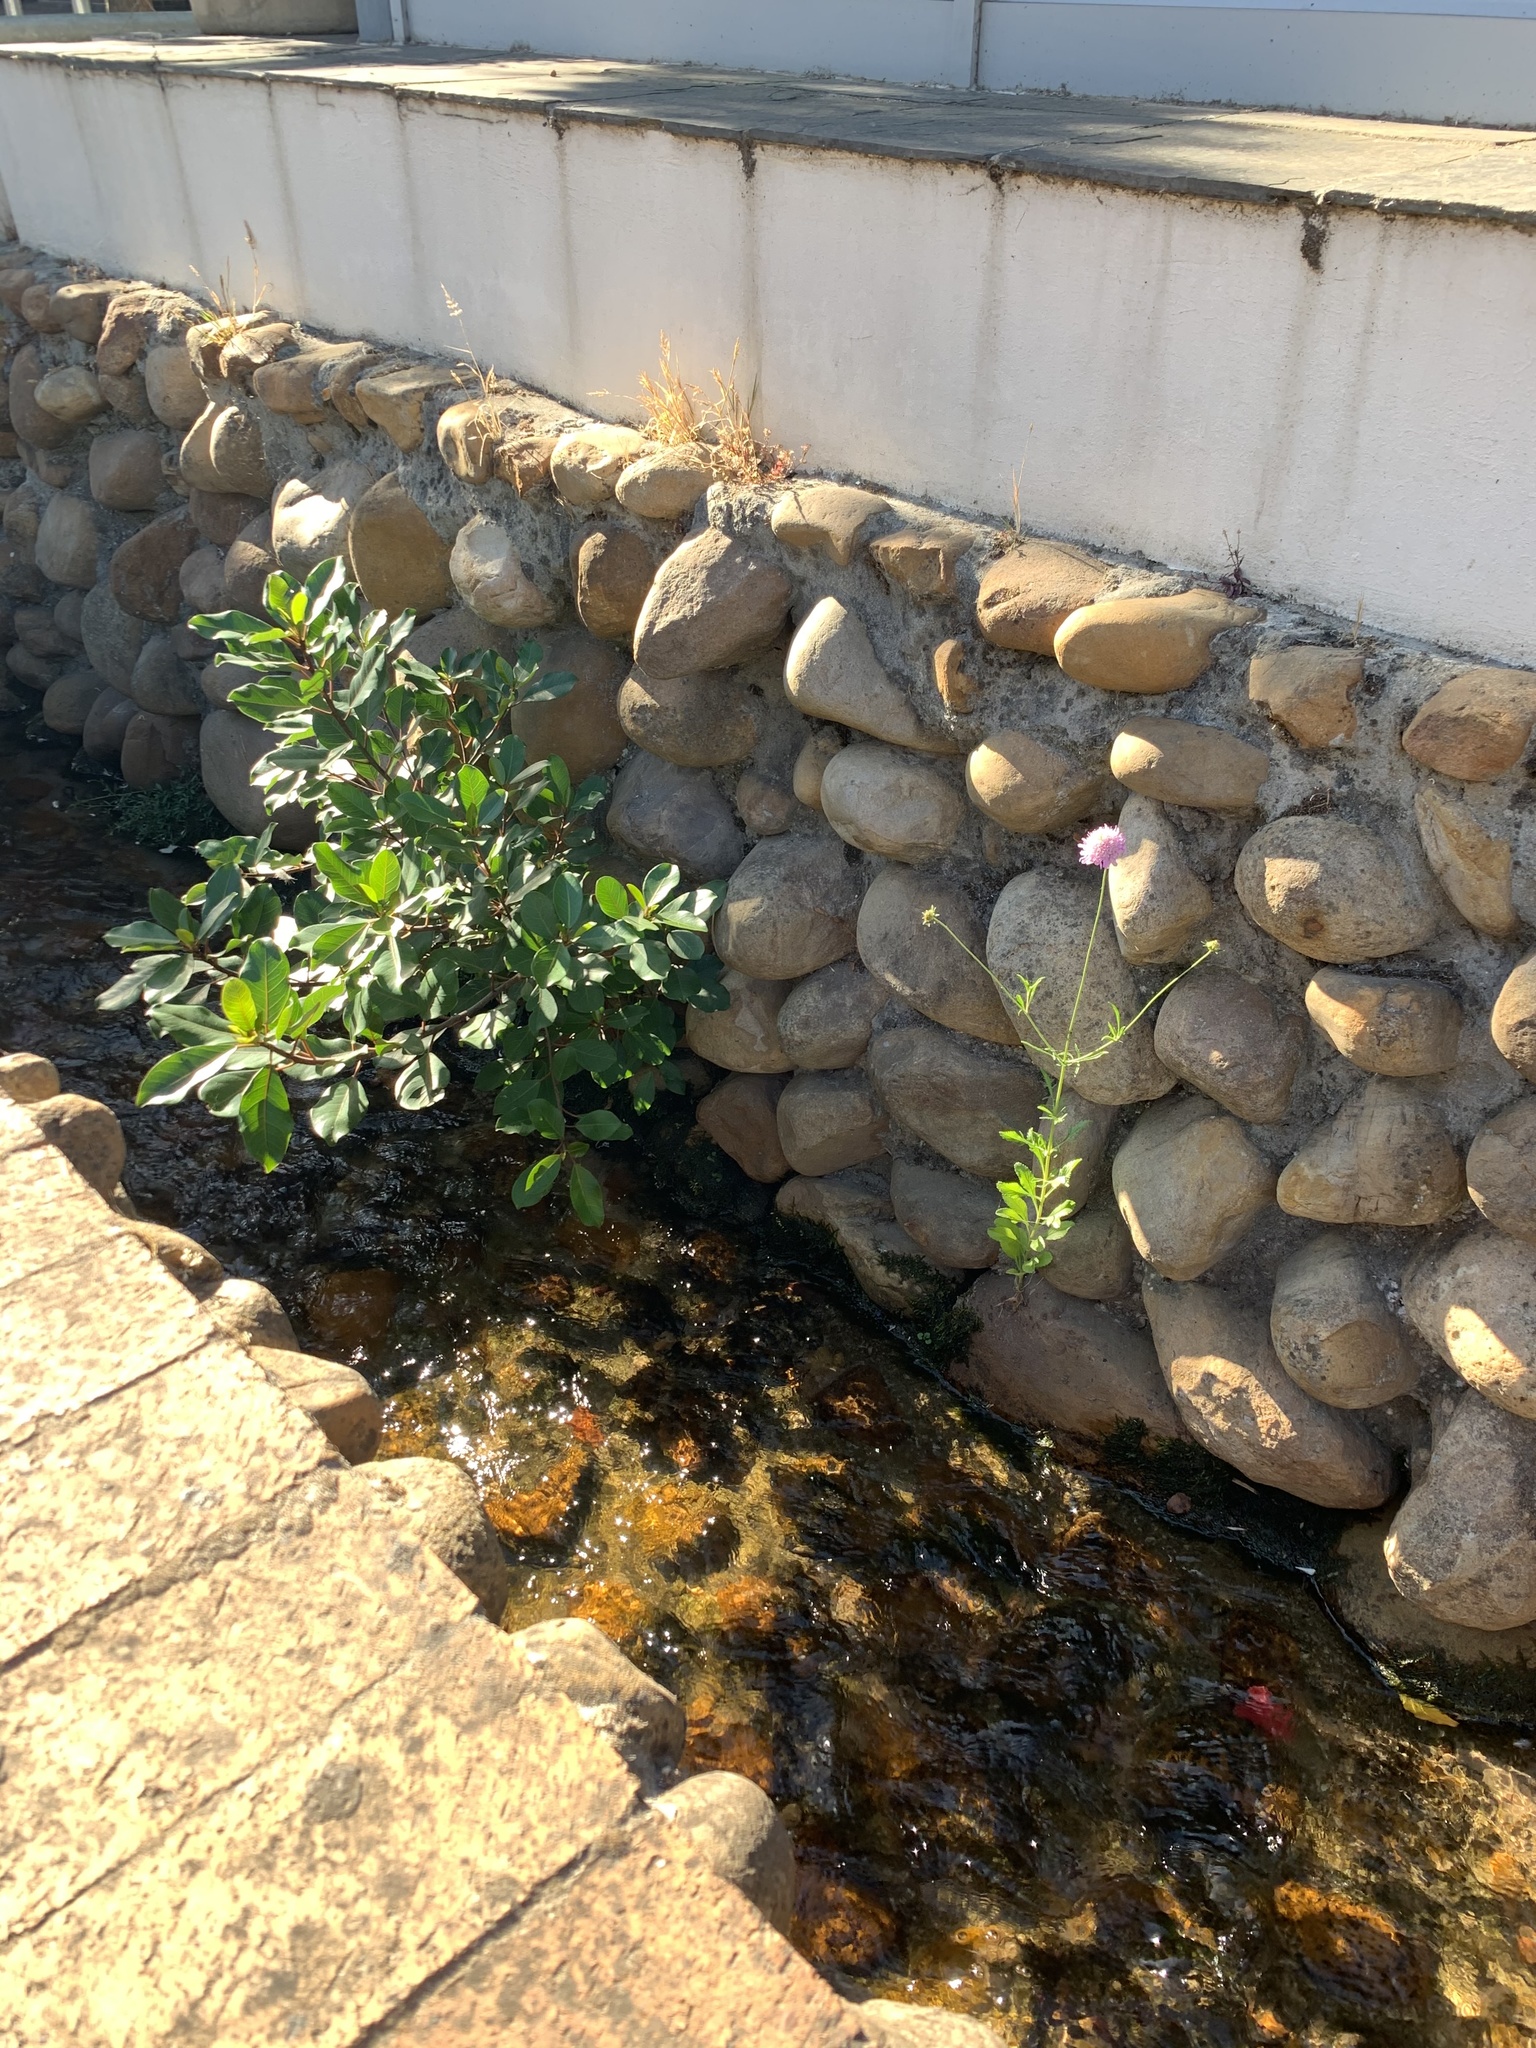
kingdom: Plantae
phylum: Tracheophyta
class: Magnoliopsida
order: Dipsacales
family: Caprifoliaceae
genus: Sixalix
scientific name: Sixalix atropurpurea
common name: Sweet scabious
